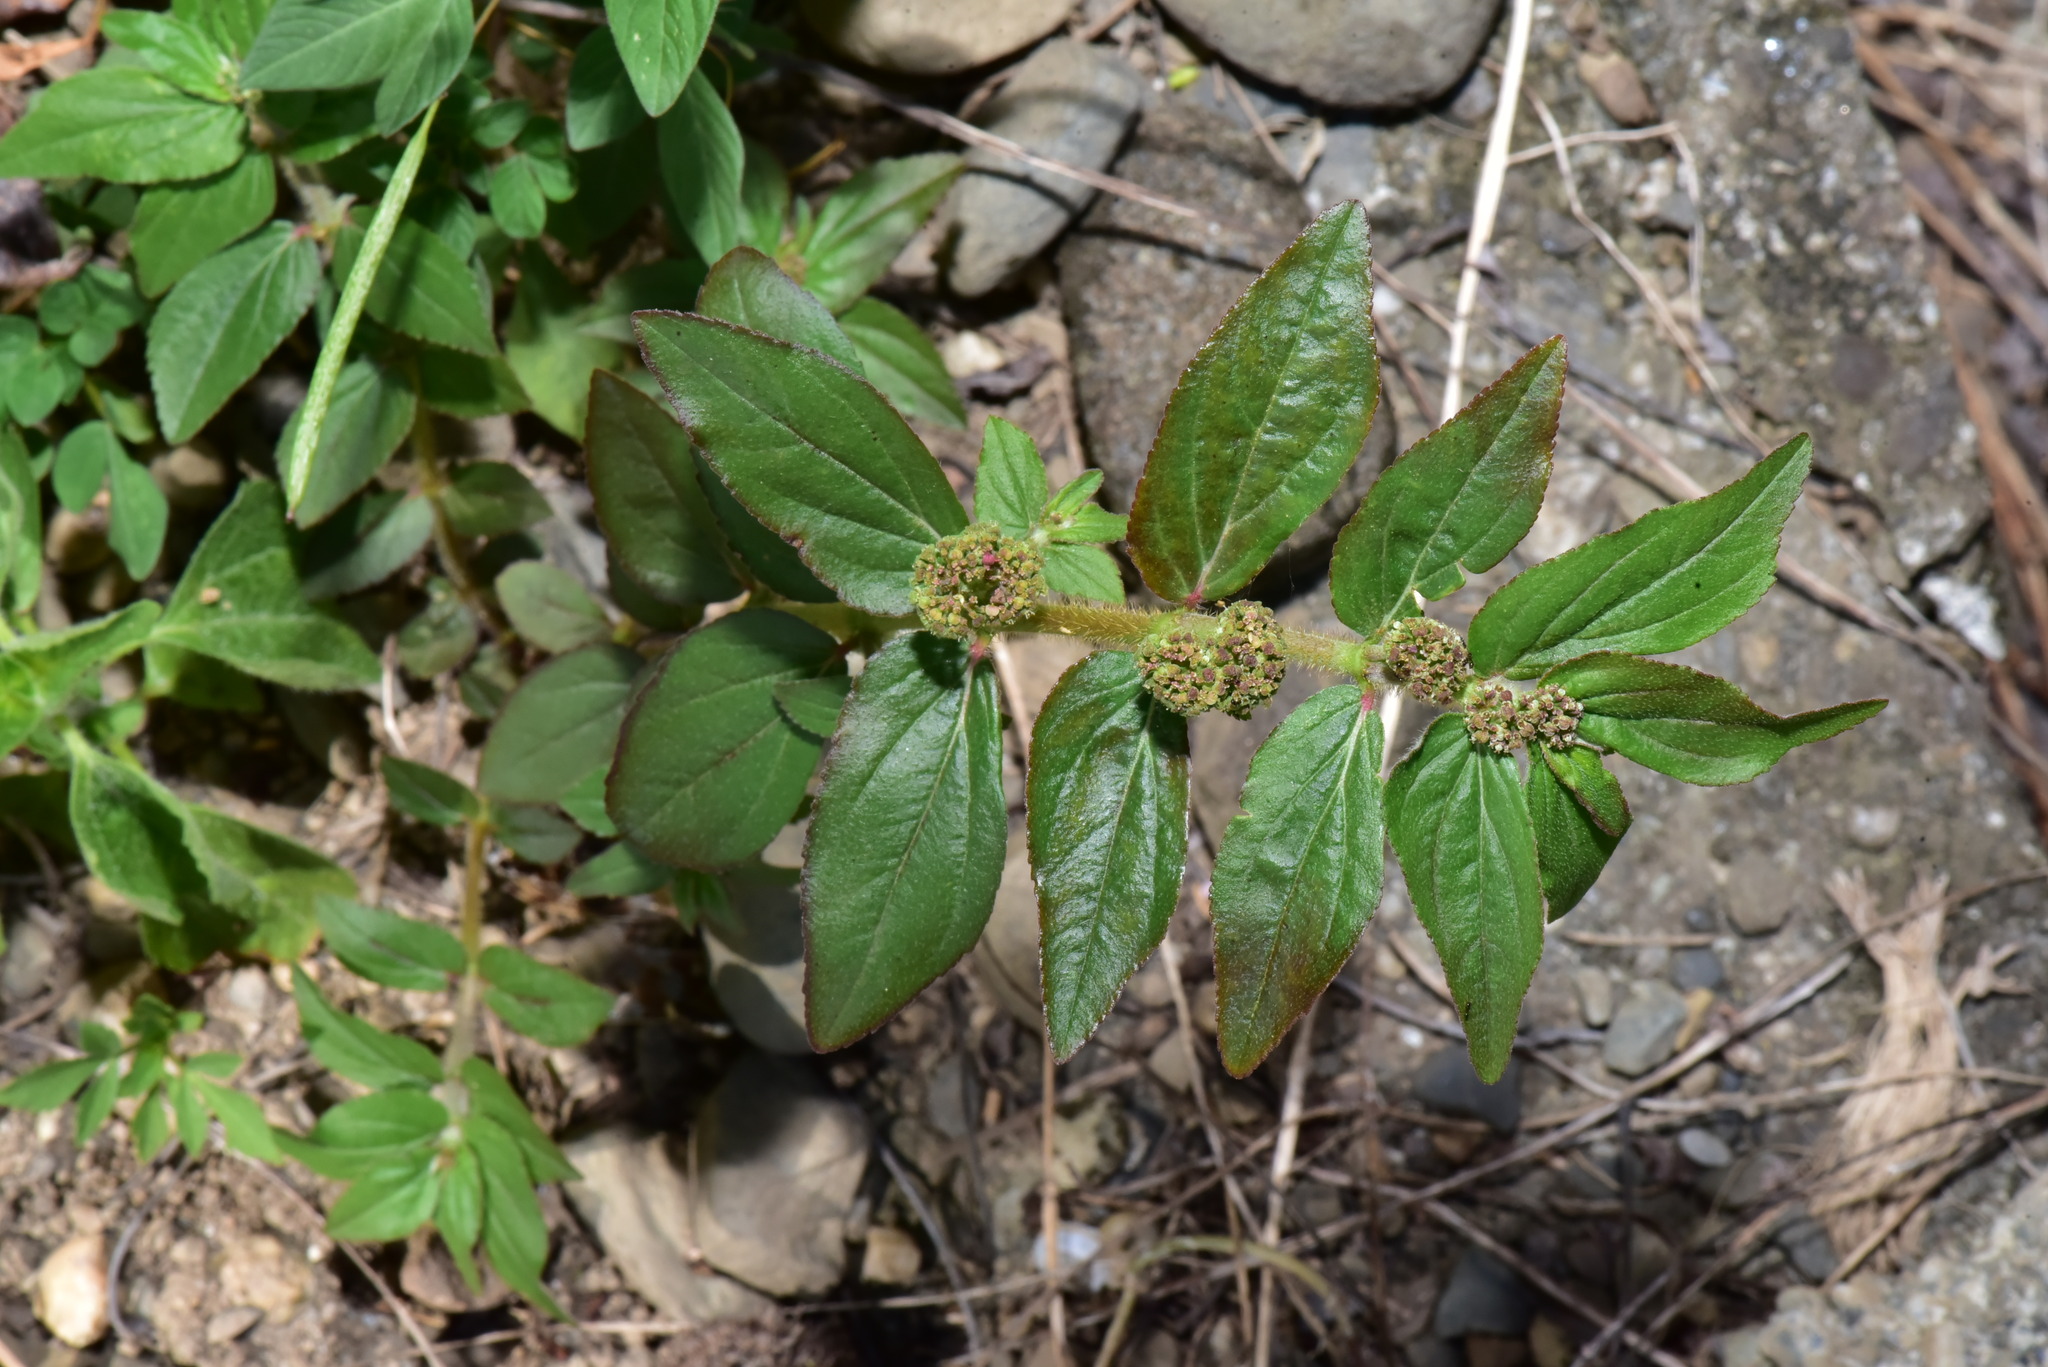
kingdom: Plantae
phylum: Tracheophyta
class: Magnoliopsida
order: Malpighiales
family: Euphorbiaceae
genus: Euphorbia
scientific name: Euphorbia hirta
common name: Pillpod sandmat
